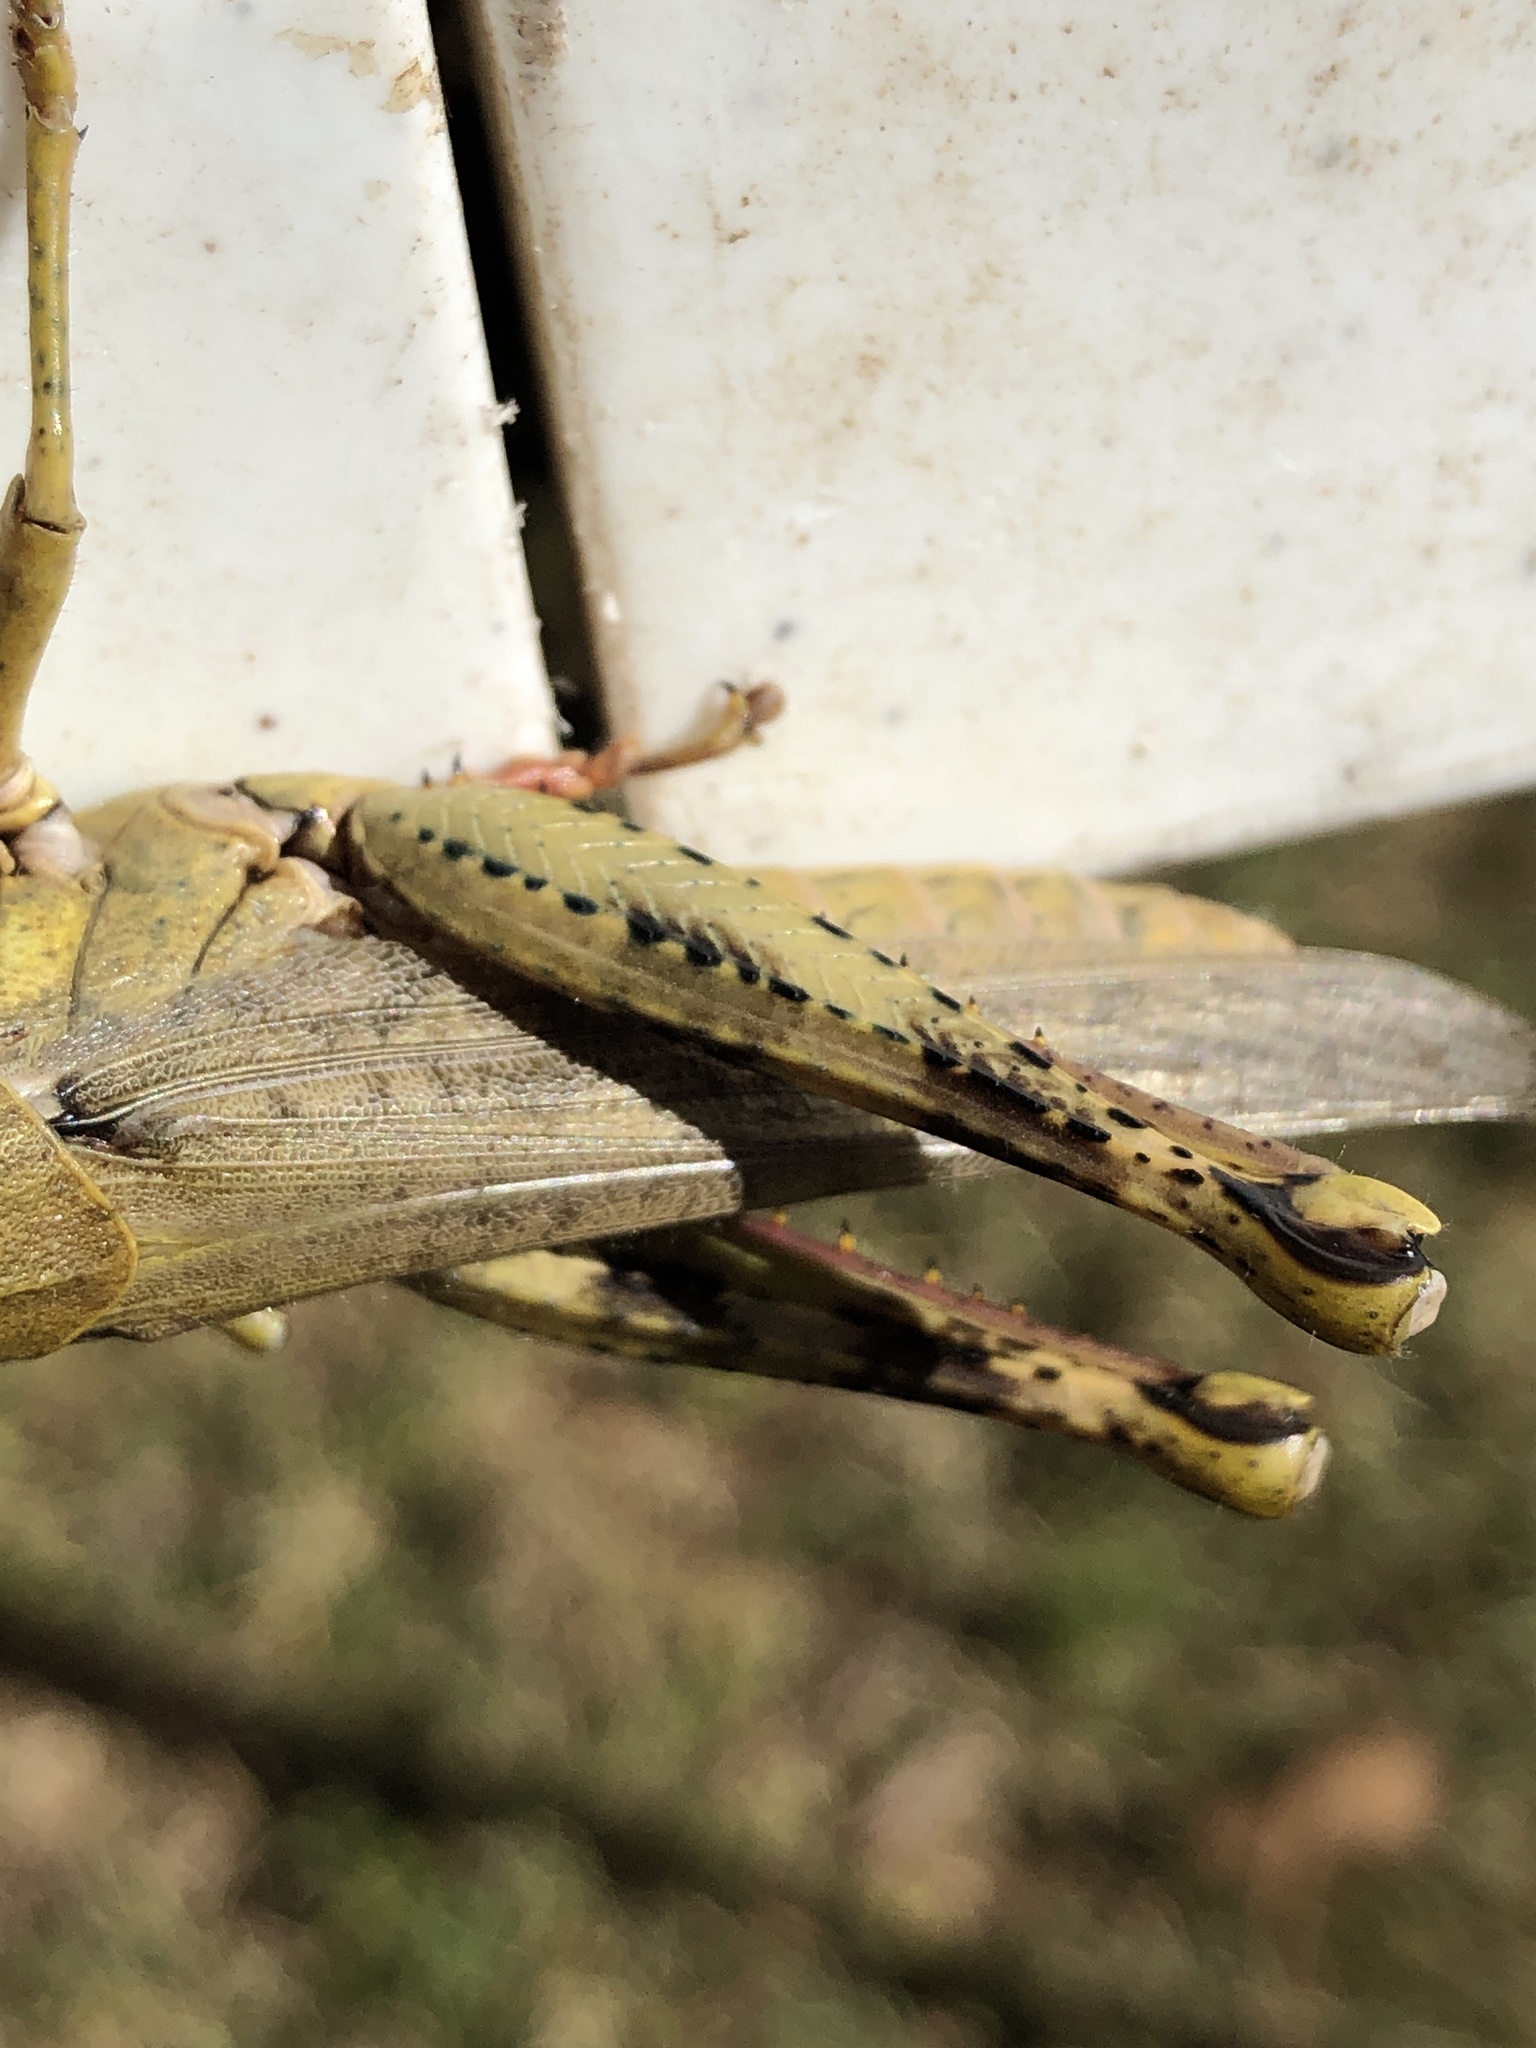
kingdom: Animalia
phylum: Arthropoda
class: Insecta
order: Orthoptera
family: Acrididae
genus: Valanga
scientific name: Valanga meleager
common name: Coastal valanga
